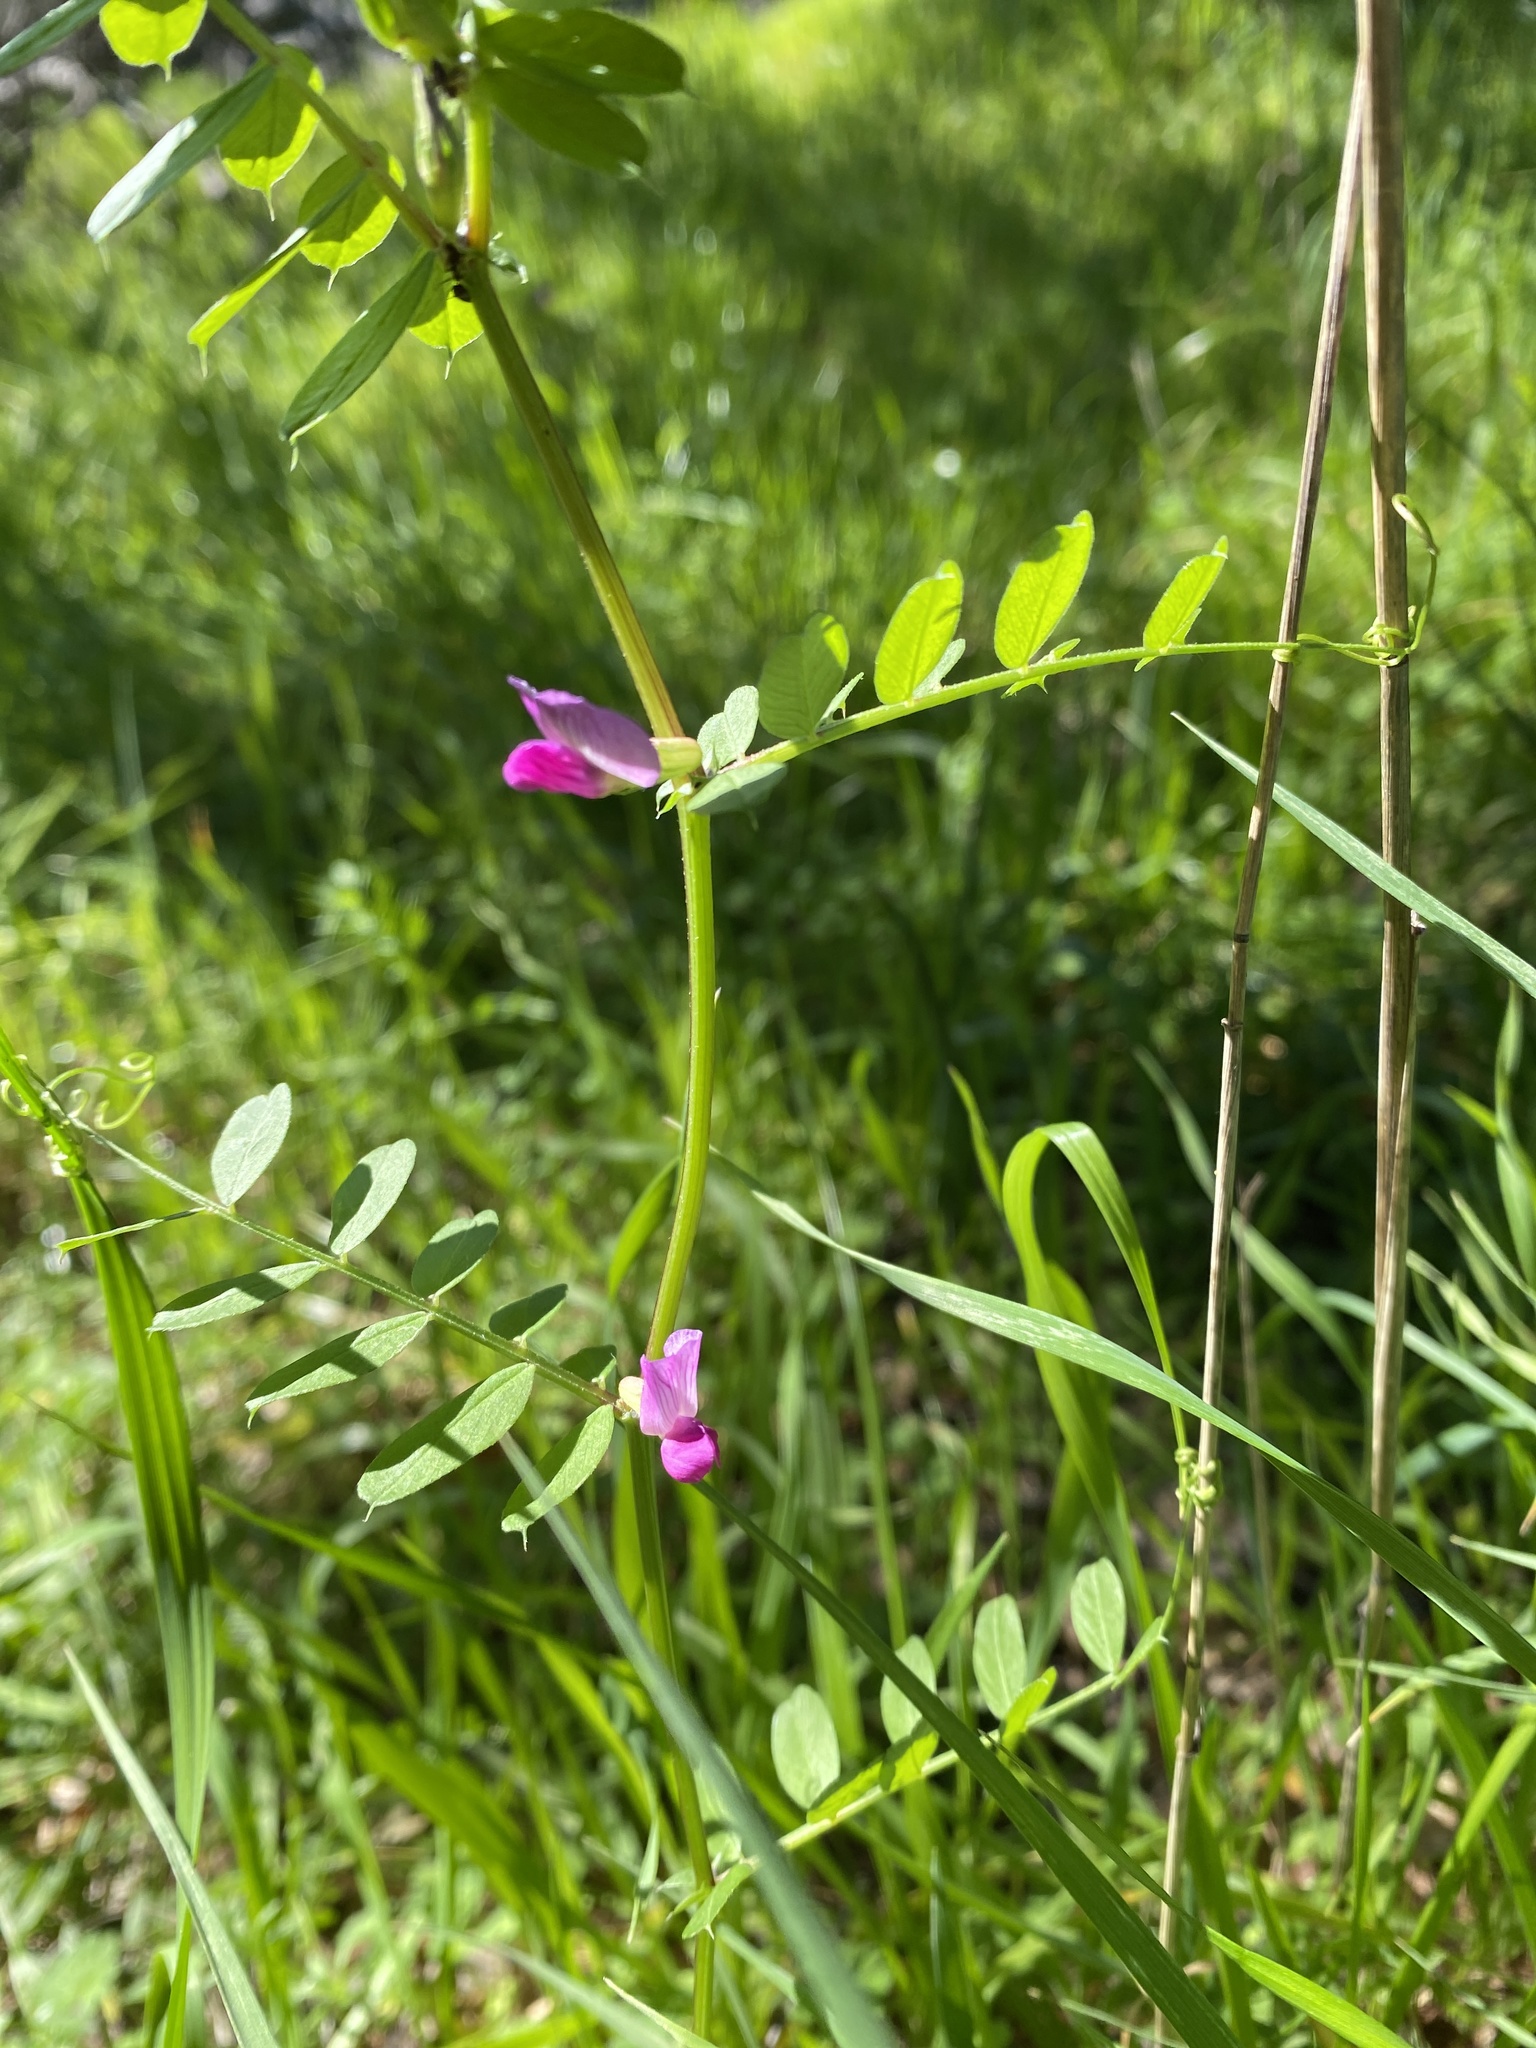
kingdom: Plantae
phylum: Tracheophyta
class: Magnoliopsida
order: Fabales
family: Fabaceae
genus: Vicia
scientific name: Vicia sativa
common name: Garden vetch
